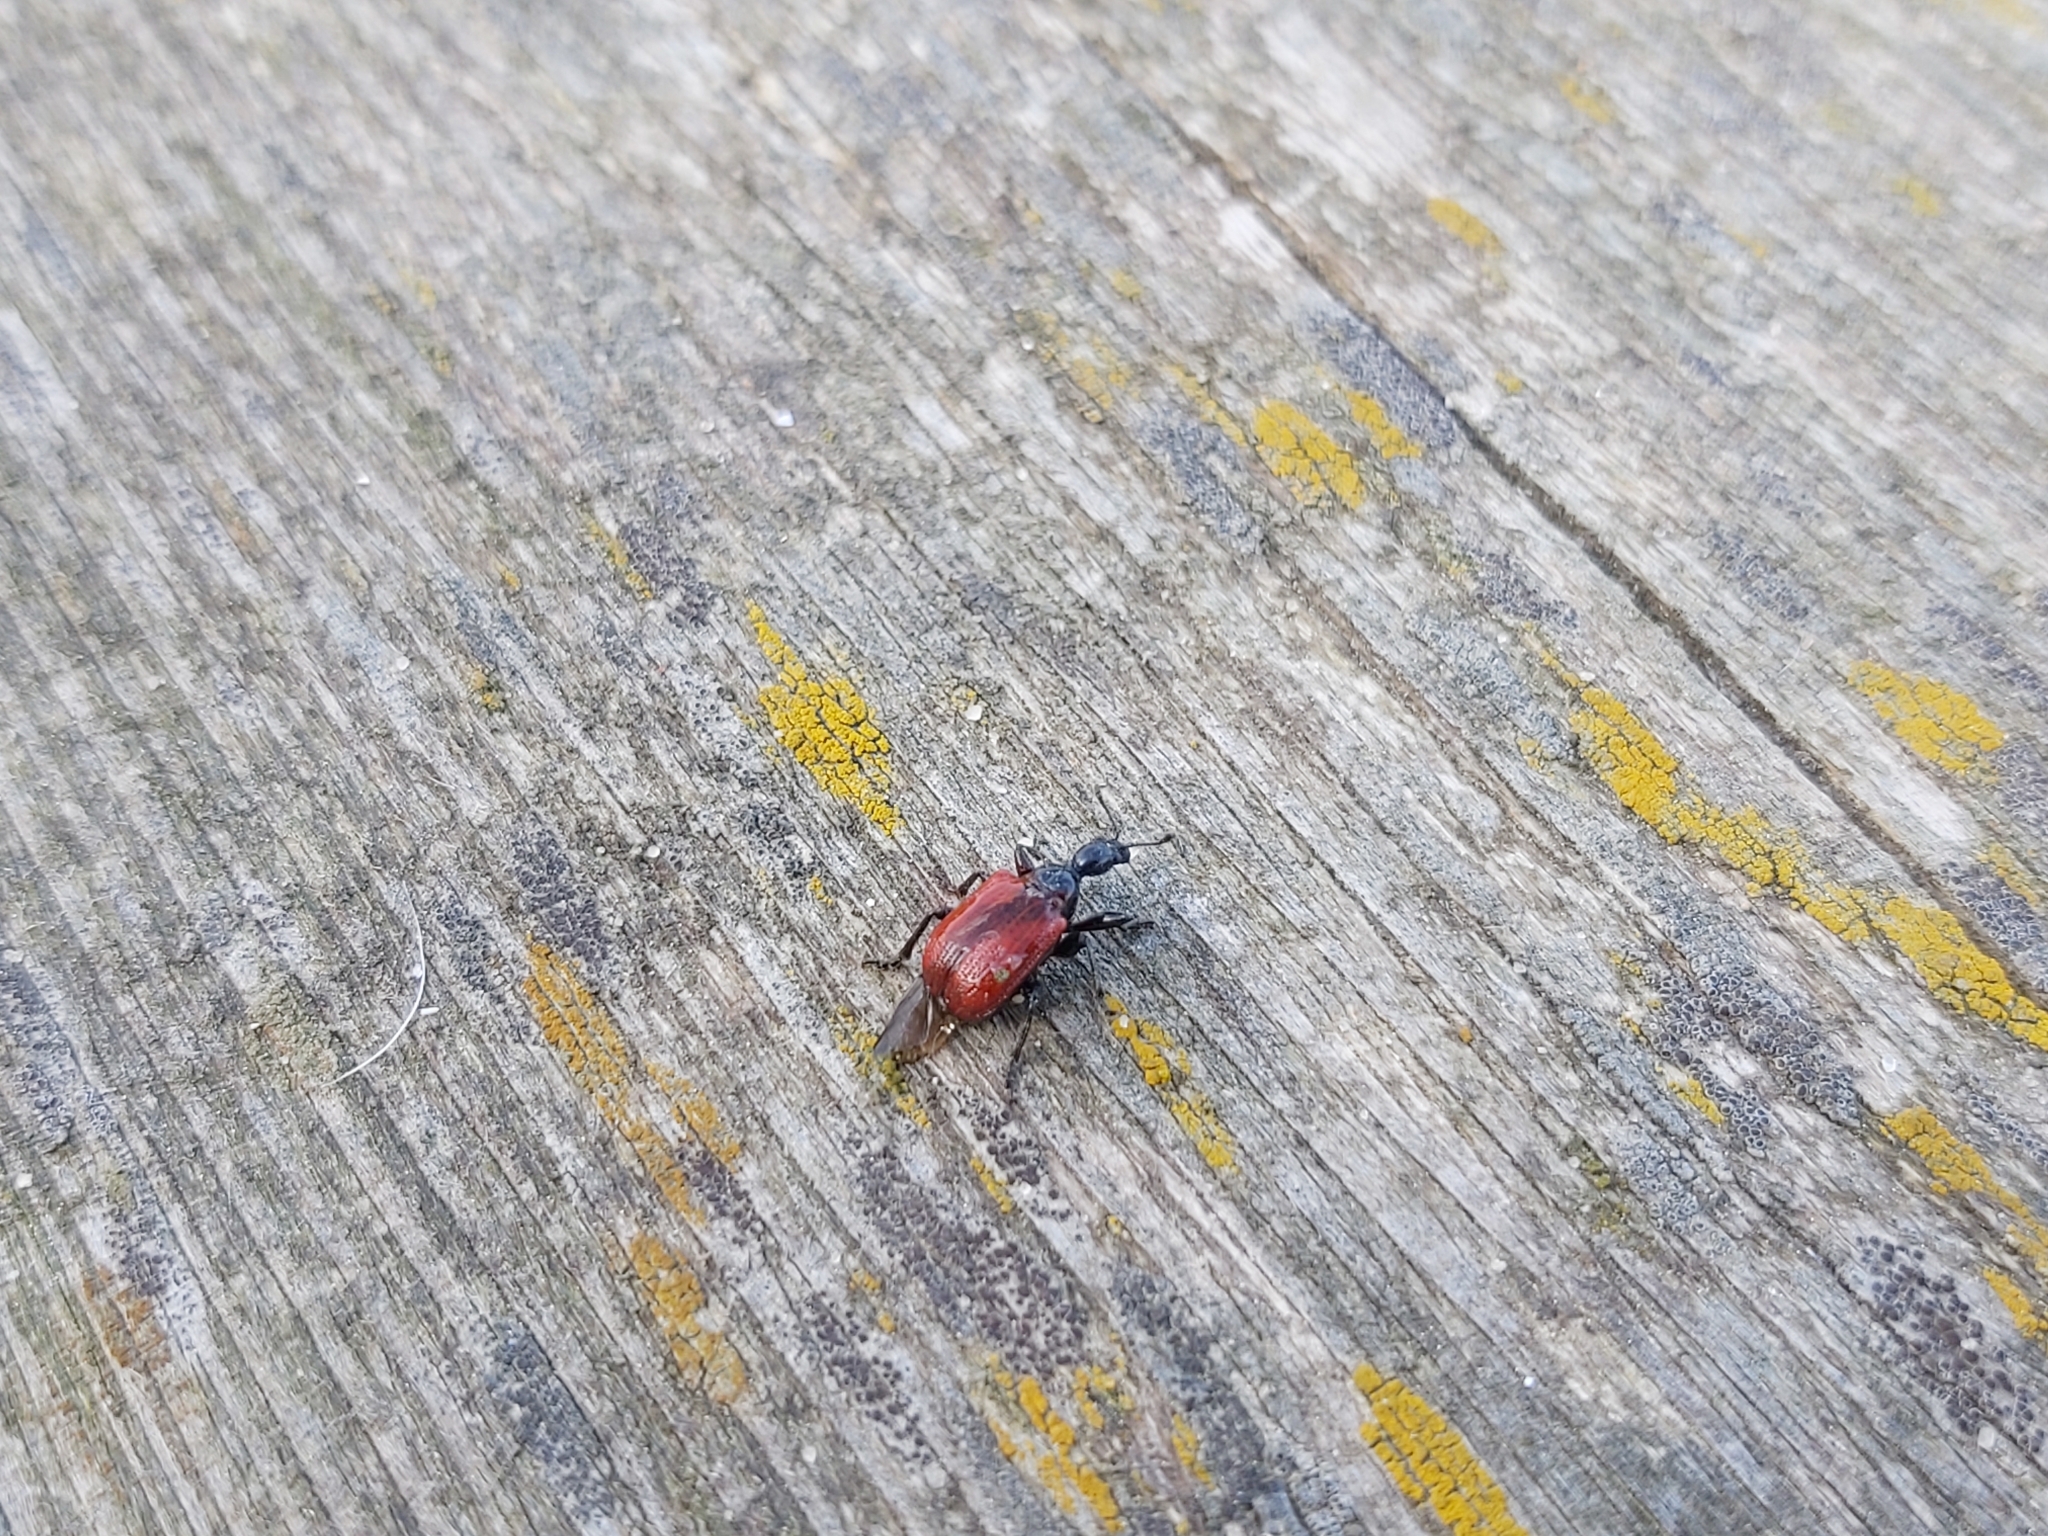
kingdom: Animalia
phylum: Arthropoda
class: Insecta
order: Coleoptera
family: Attelabidae
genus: Compsapoderus
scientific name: Compsapoderus erythropterus
